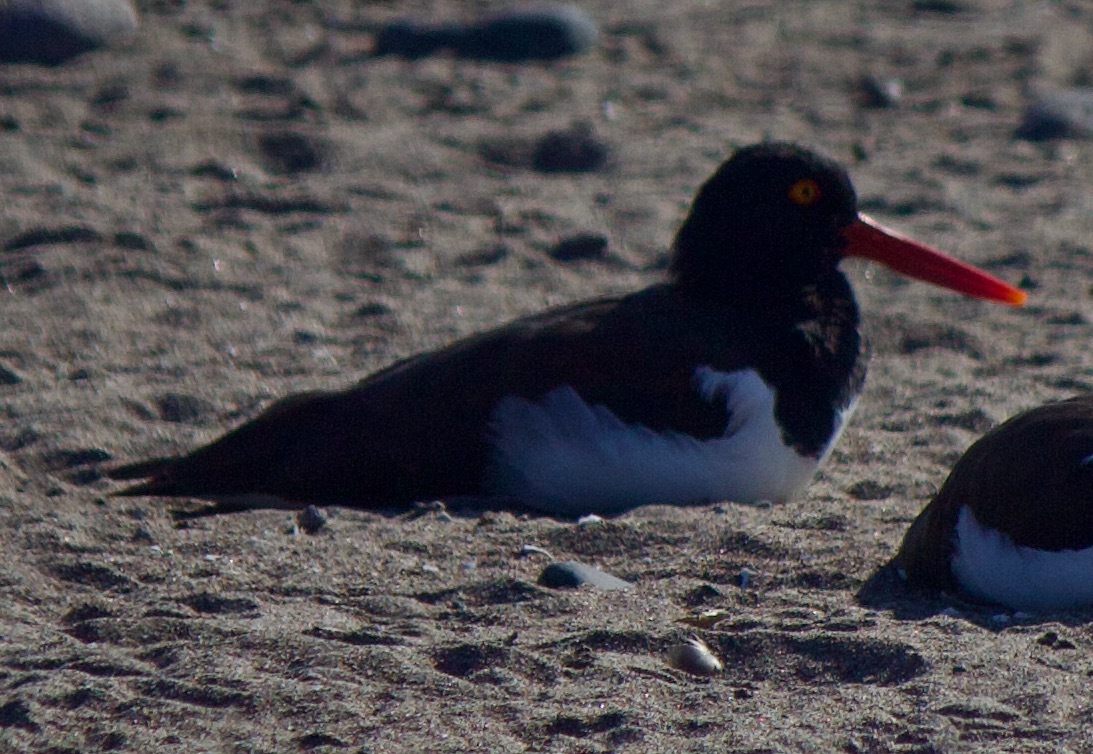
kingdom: Animalia
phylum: Chordata
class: Aves
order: Charadriiformes
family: Haematopodidae
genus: Haematopus
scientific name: Haematopus palliatus
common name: American oystercatcher
